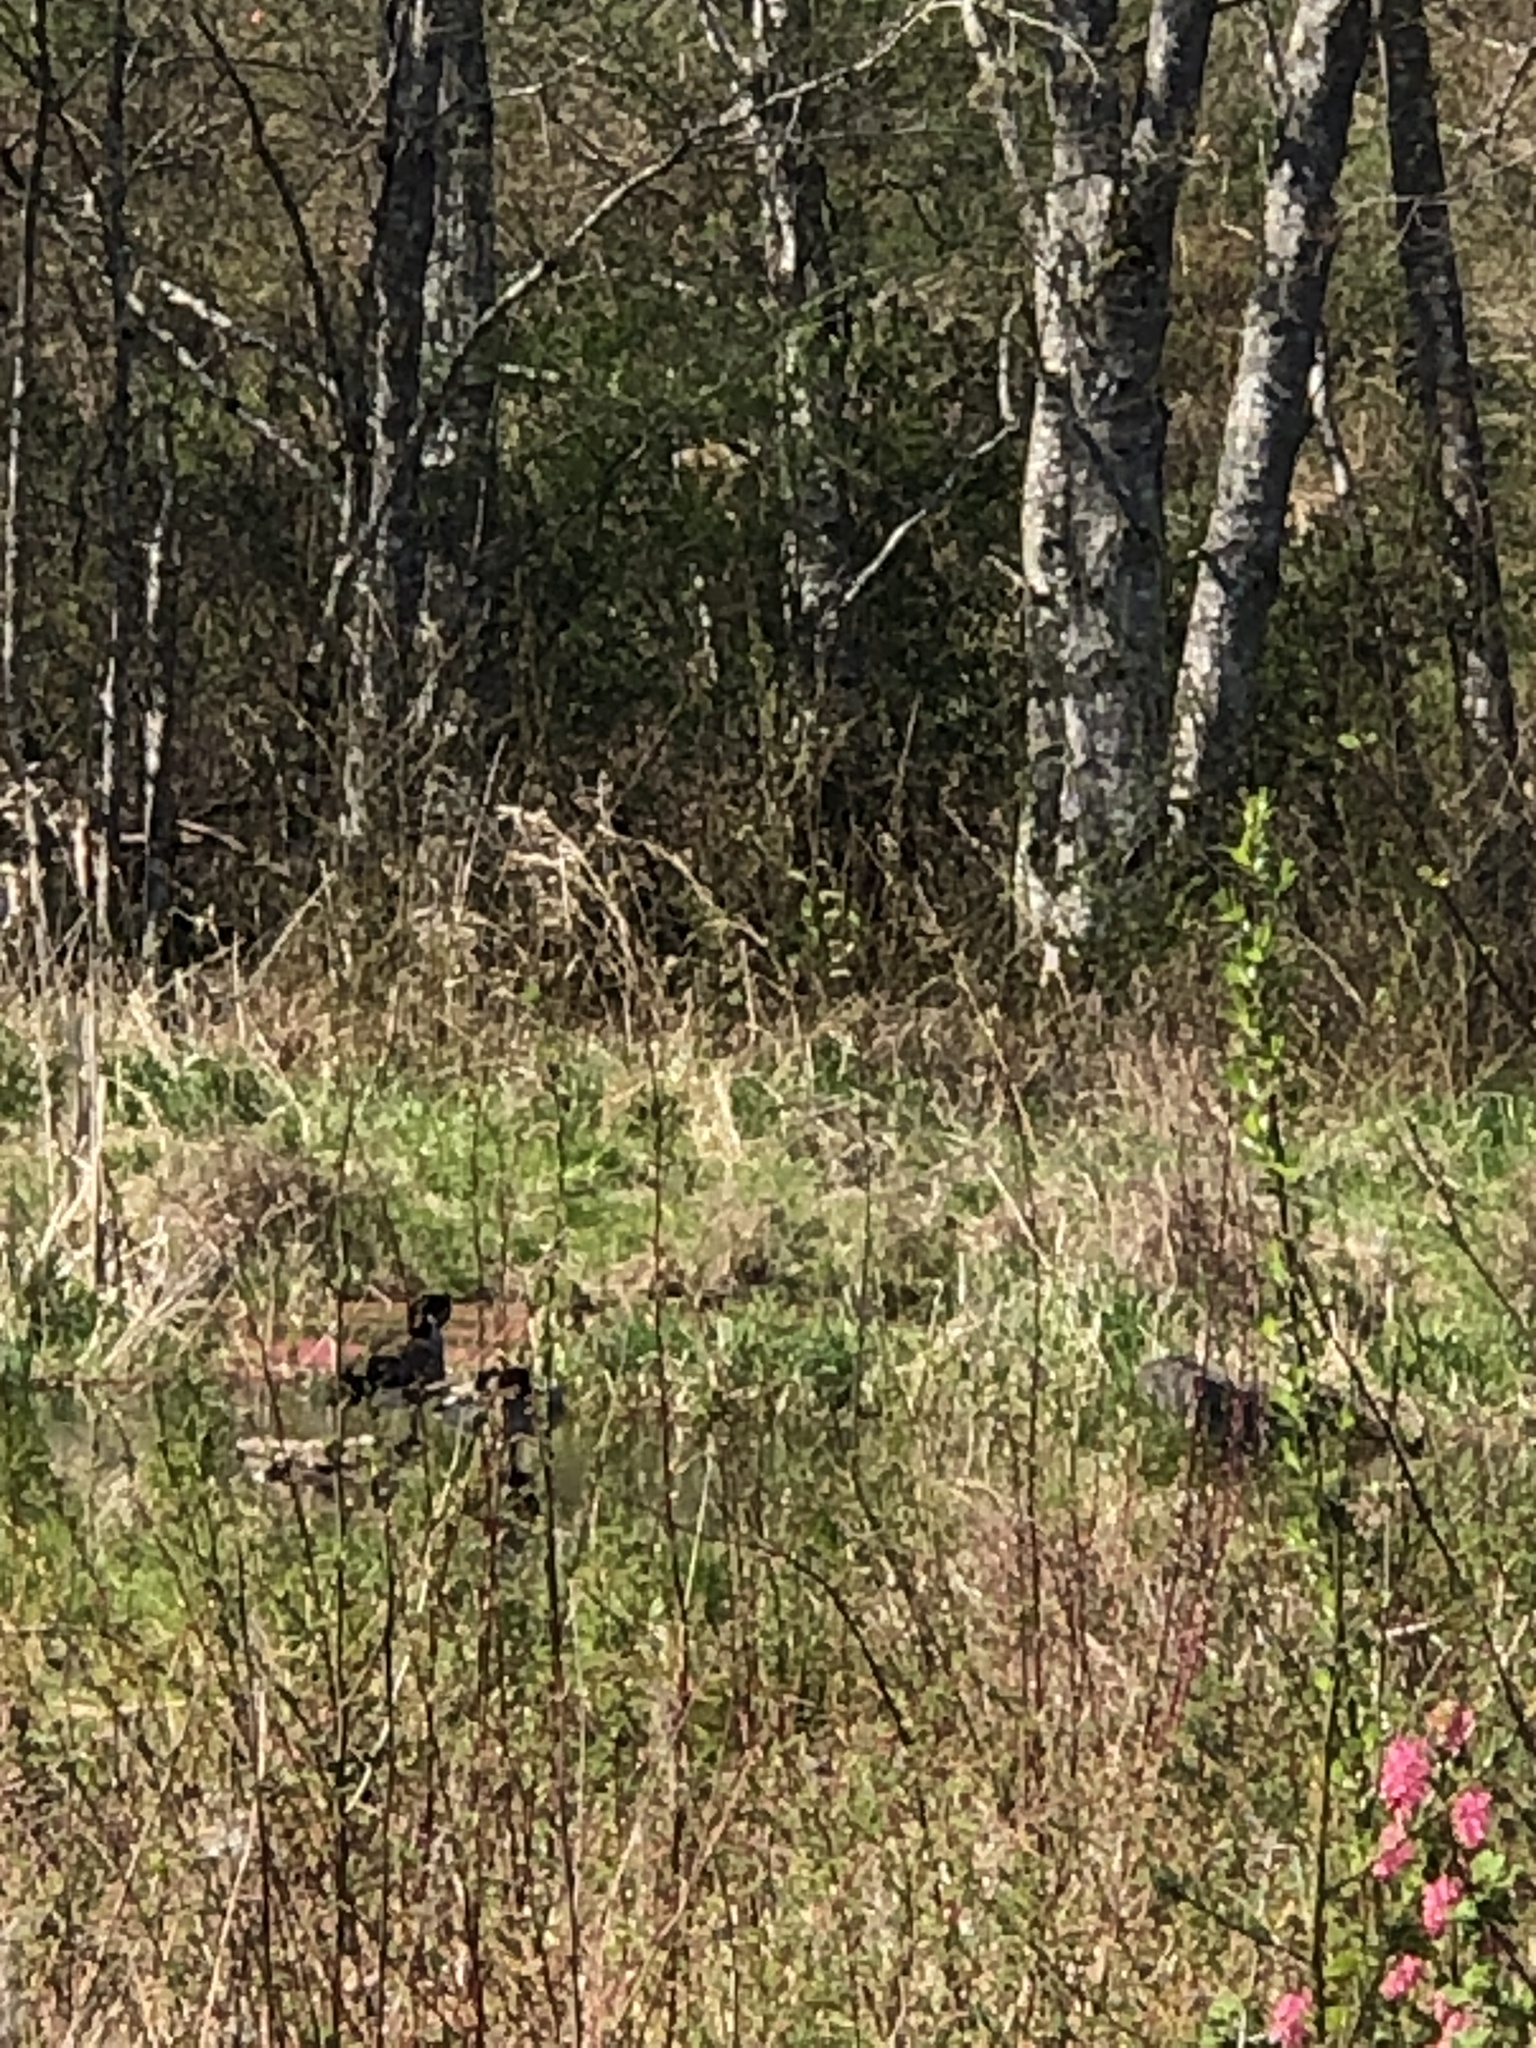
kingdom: Animalia
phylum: Chordata
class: Aves
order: Anseriformes
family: Anatidae
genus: Branta
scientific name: Branta canadensis
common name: Canada goose
